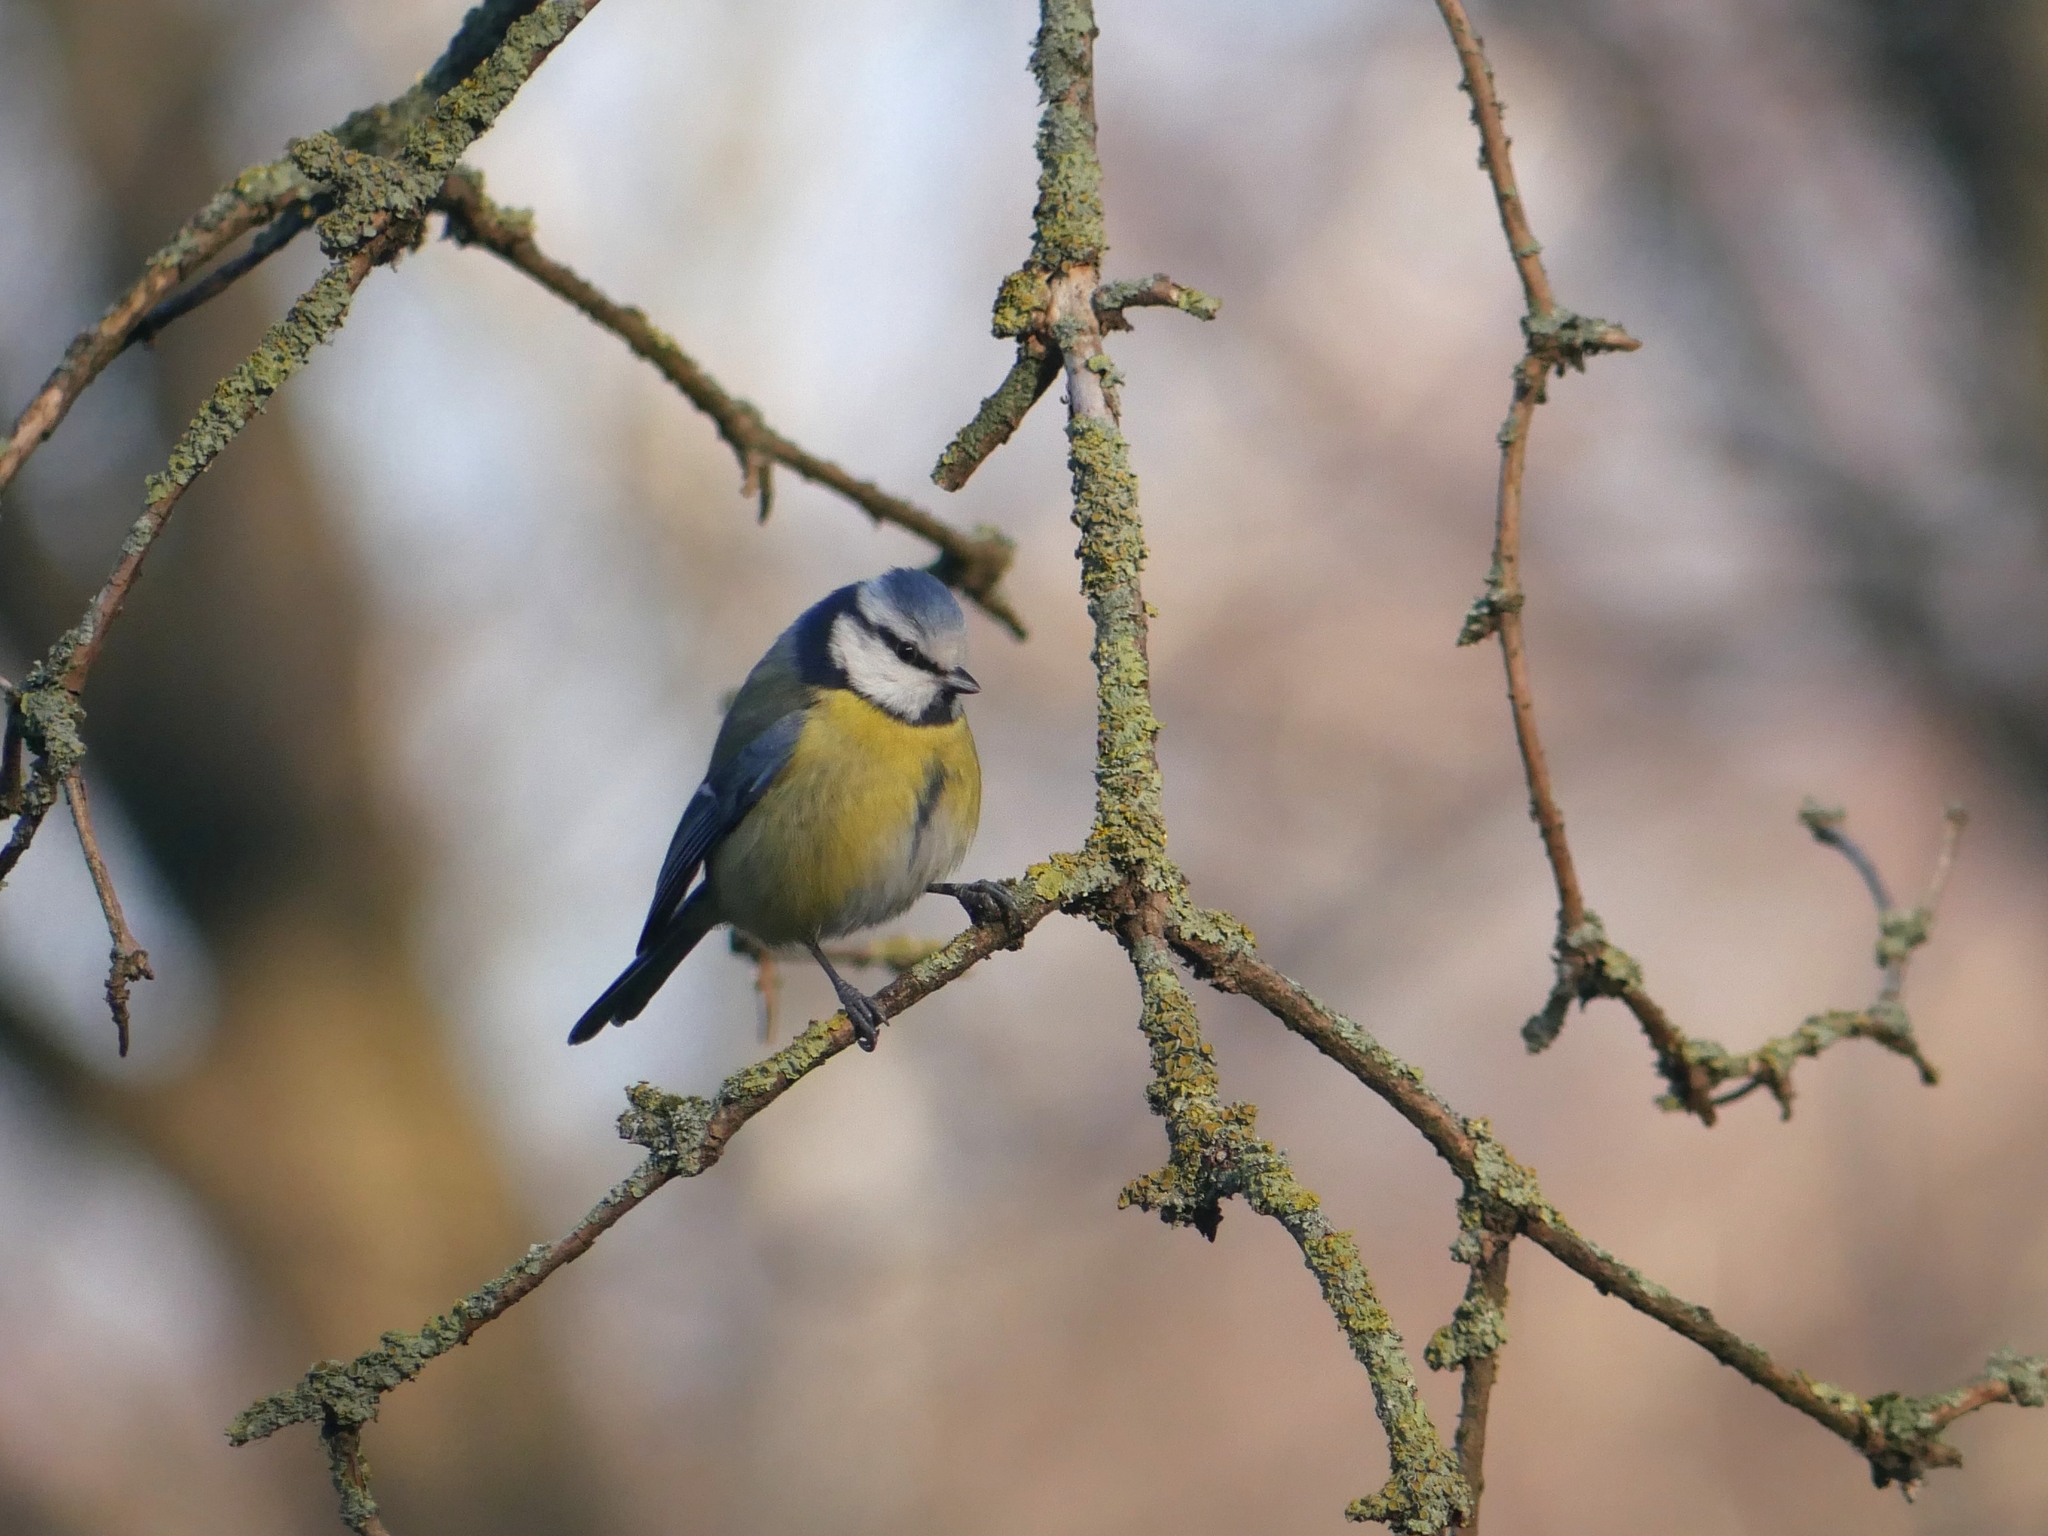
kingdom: Animalia
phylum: Chordata
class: Aves
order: Passeriformes
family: Paridae
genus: Cyanistes
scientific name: Cyanistes caeruleus
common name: Eurasian blue tit
